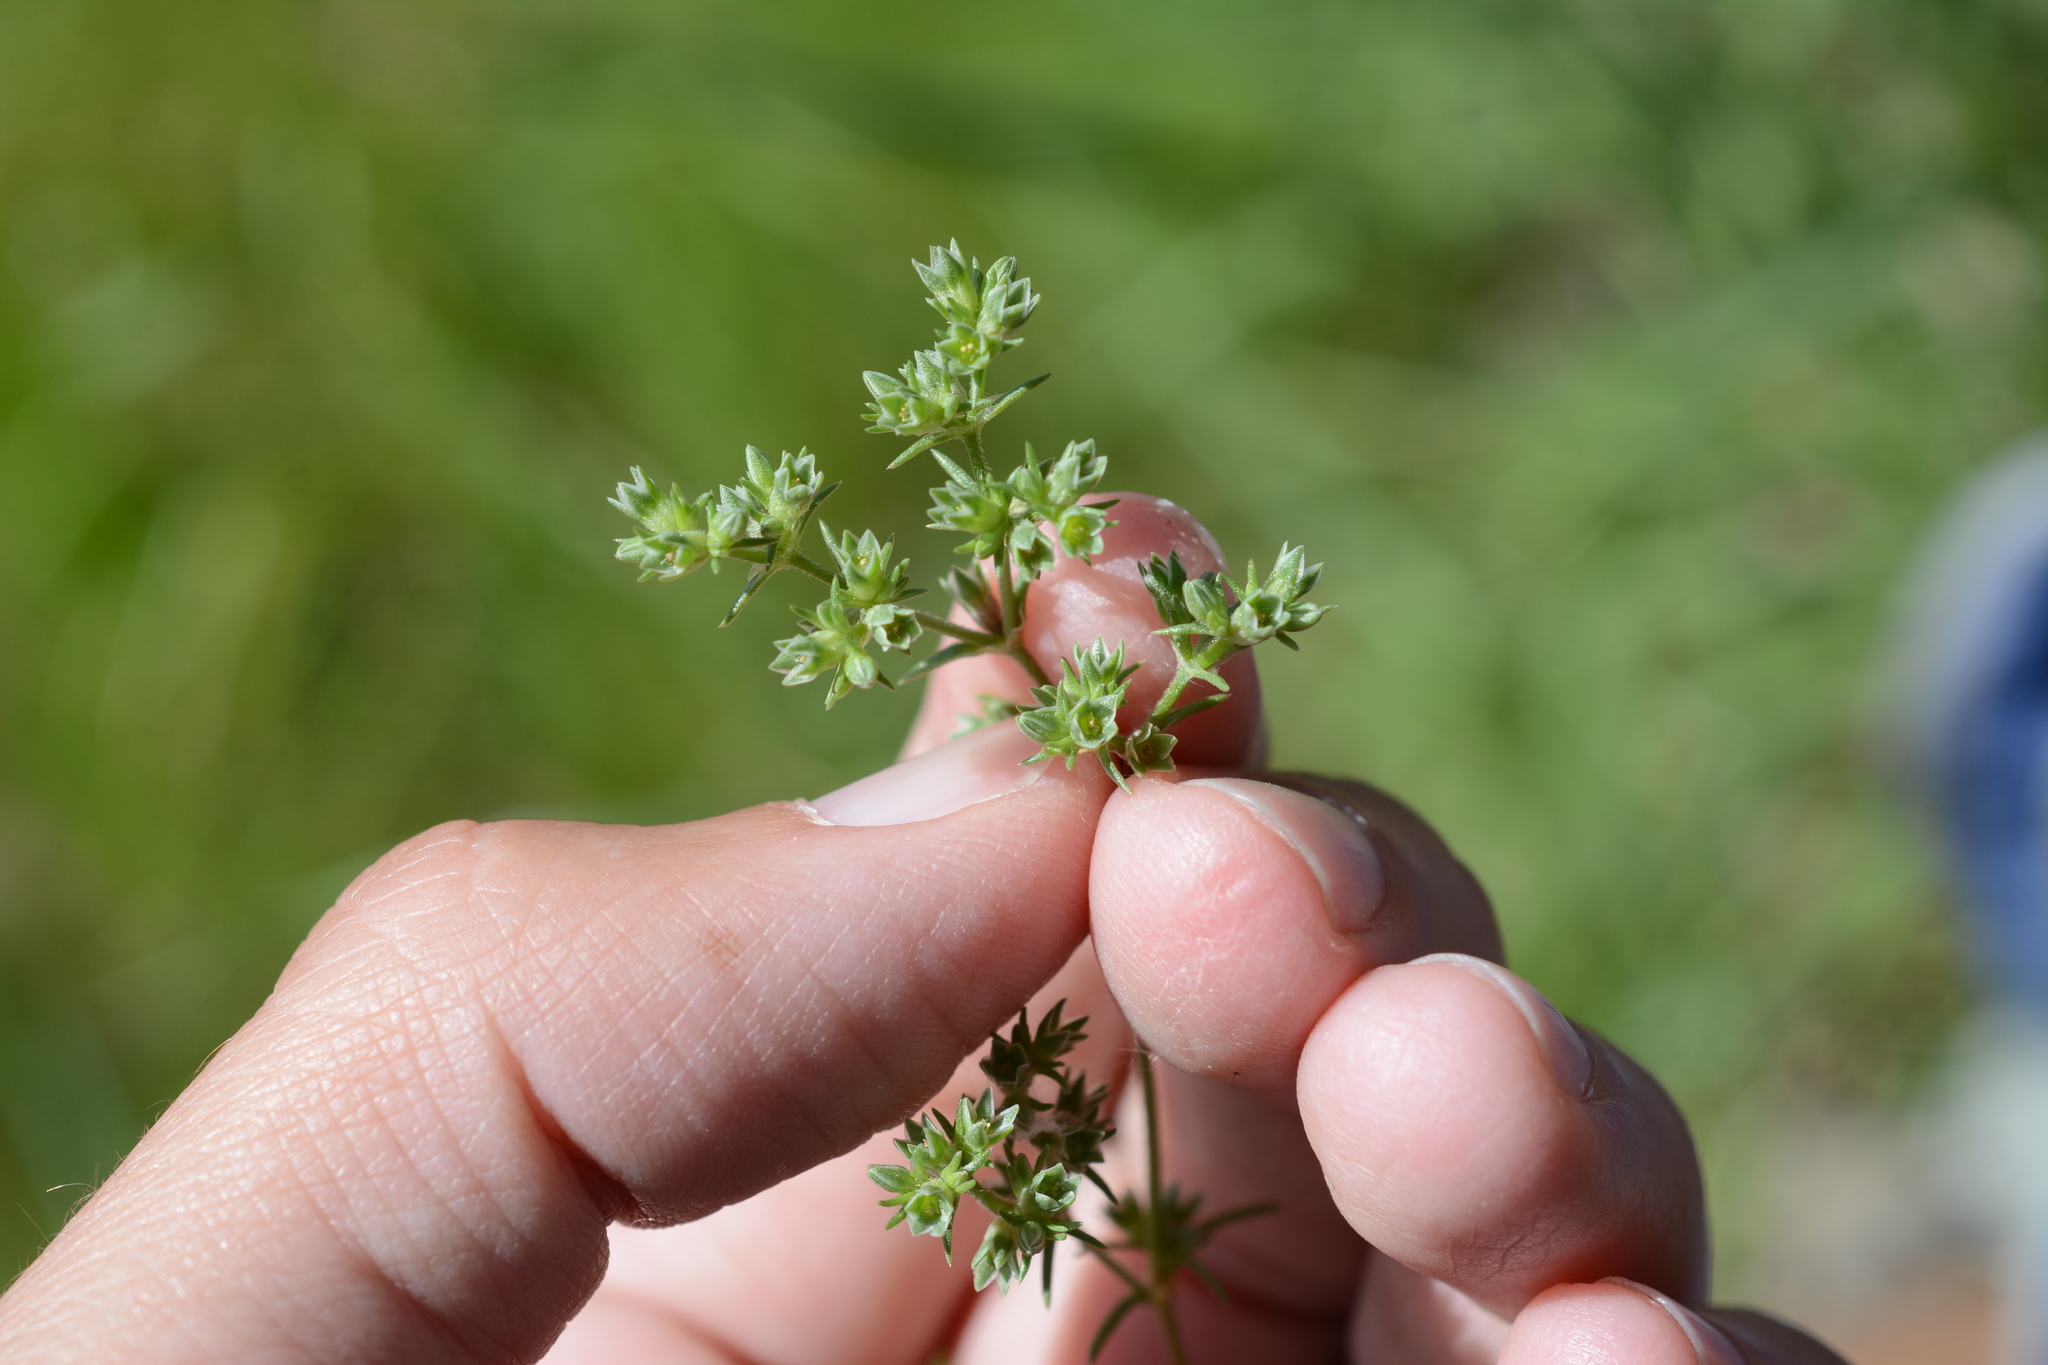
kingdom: Plantae
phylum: Tracheophyta
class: Magnoliopsida
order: Caryophyllales
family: Caryophyllaceae
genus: Scleranthus
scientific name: Scleranthus annuus
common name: Annual knawel
